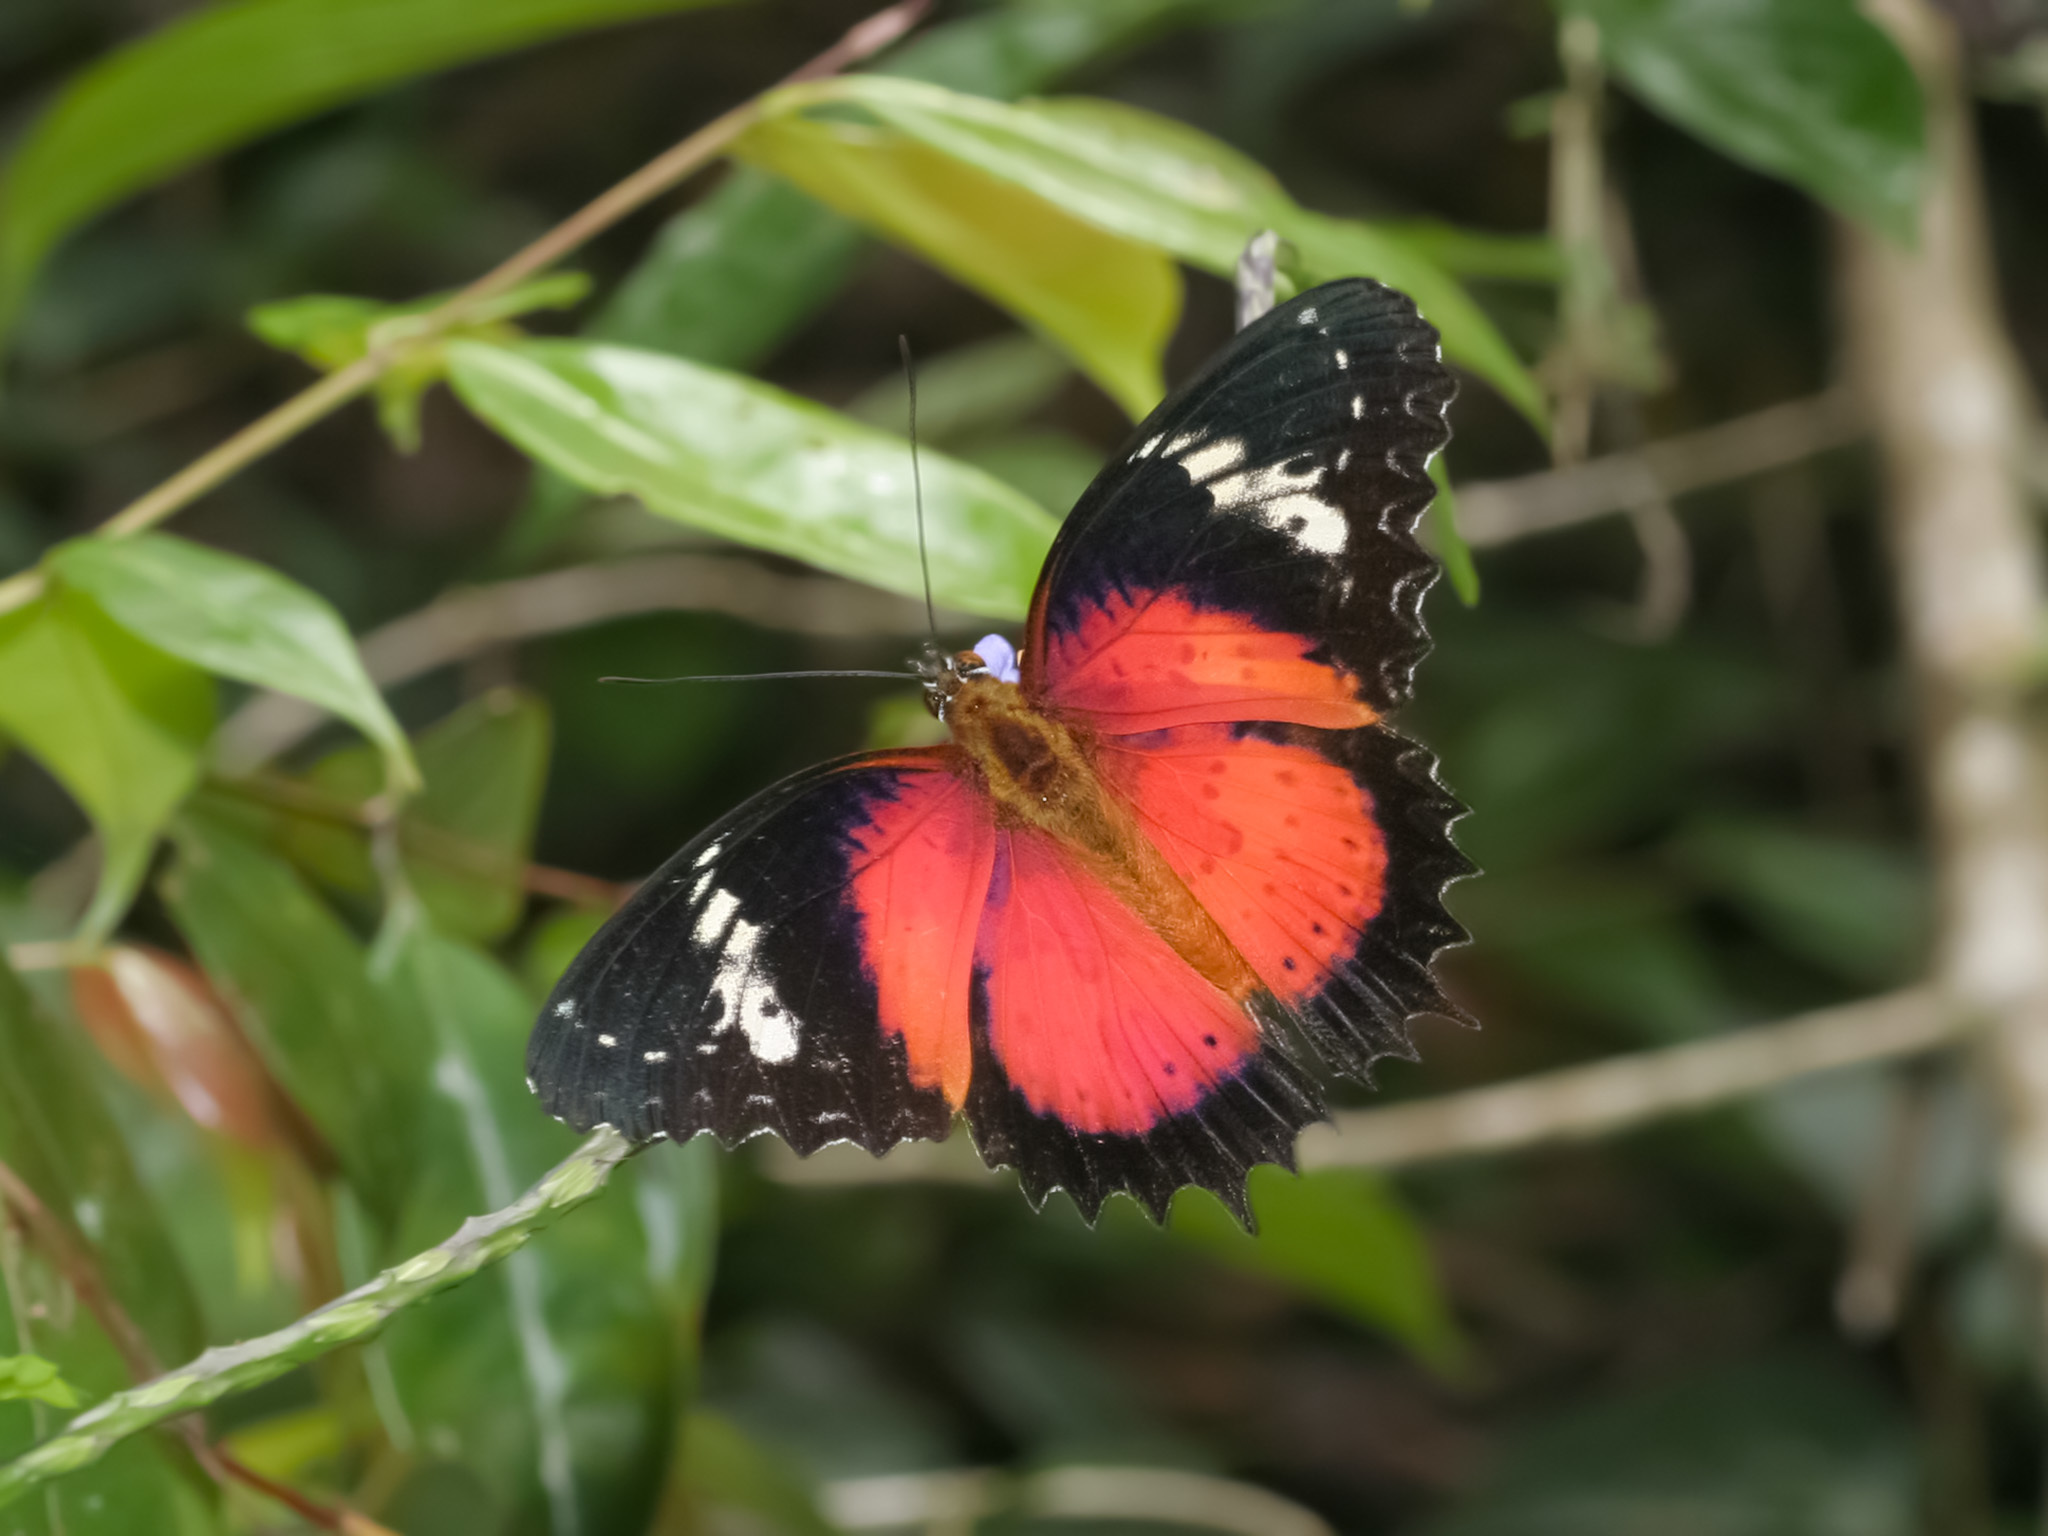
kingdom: Animalia
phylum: Arthropoda
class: Insecta
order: Lepidoptera
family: Nymphalidae
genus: Cethosia
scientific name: Cethosia penthesilea
